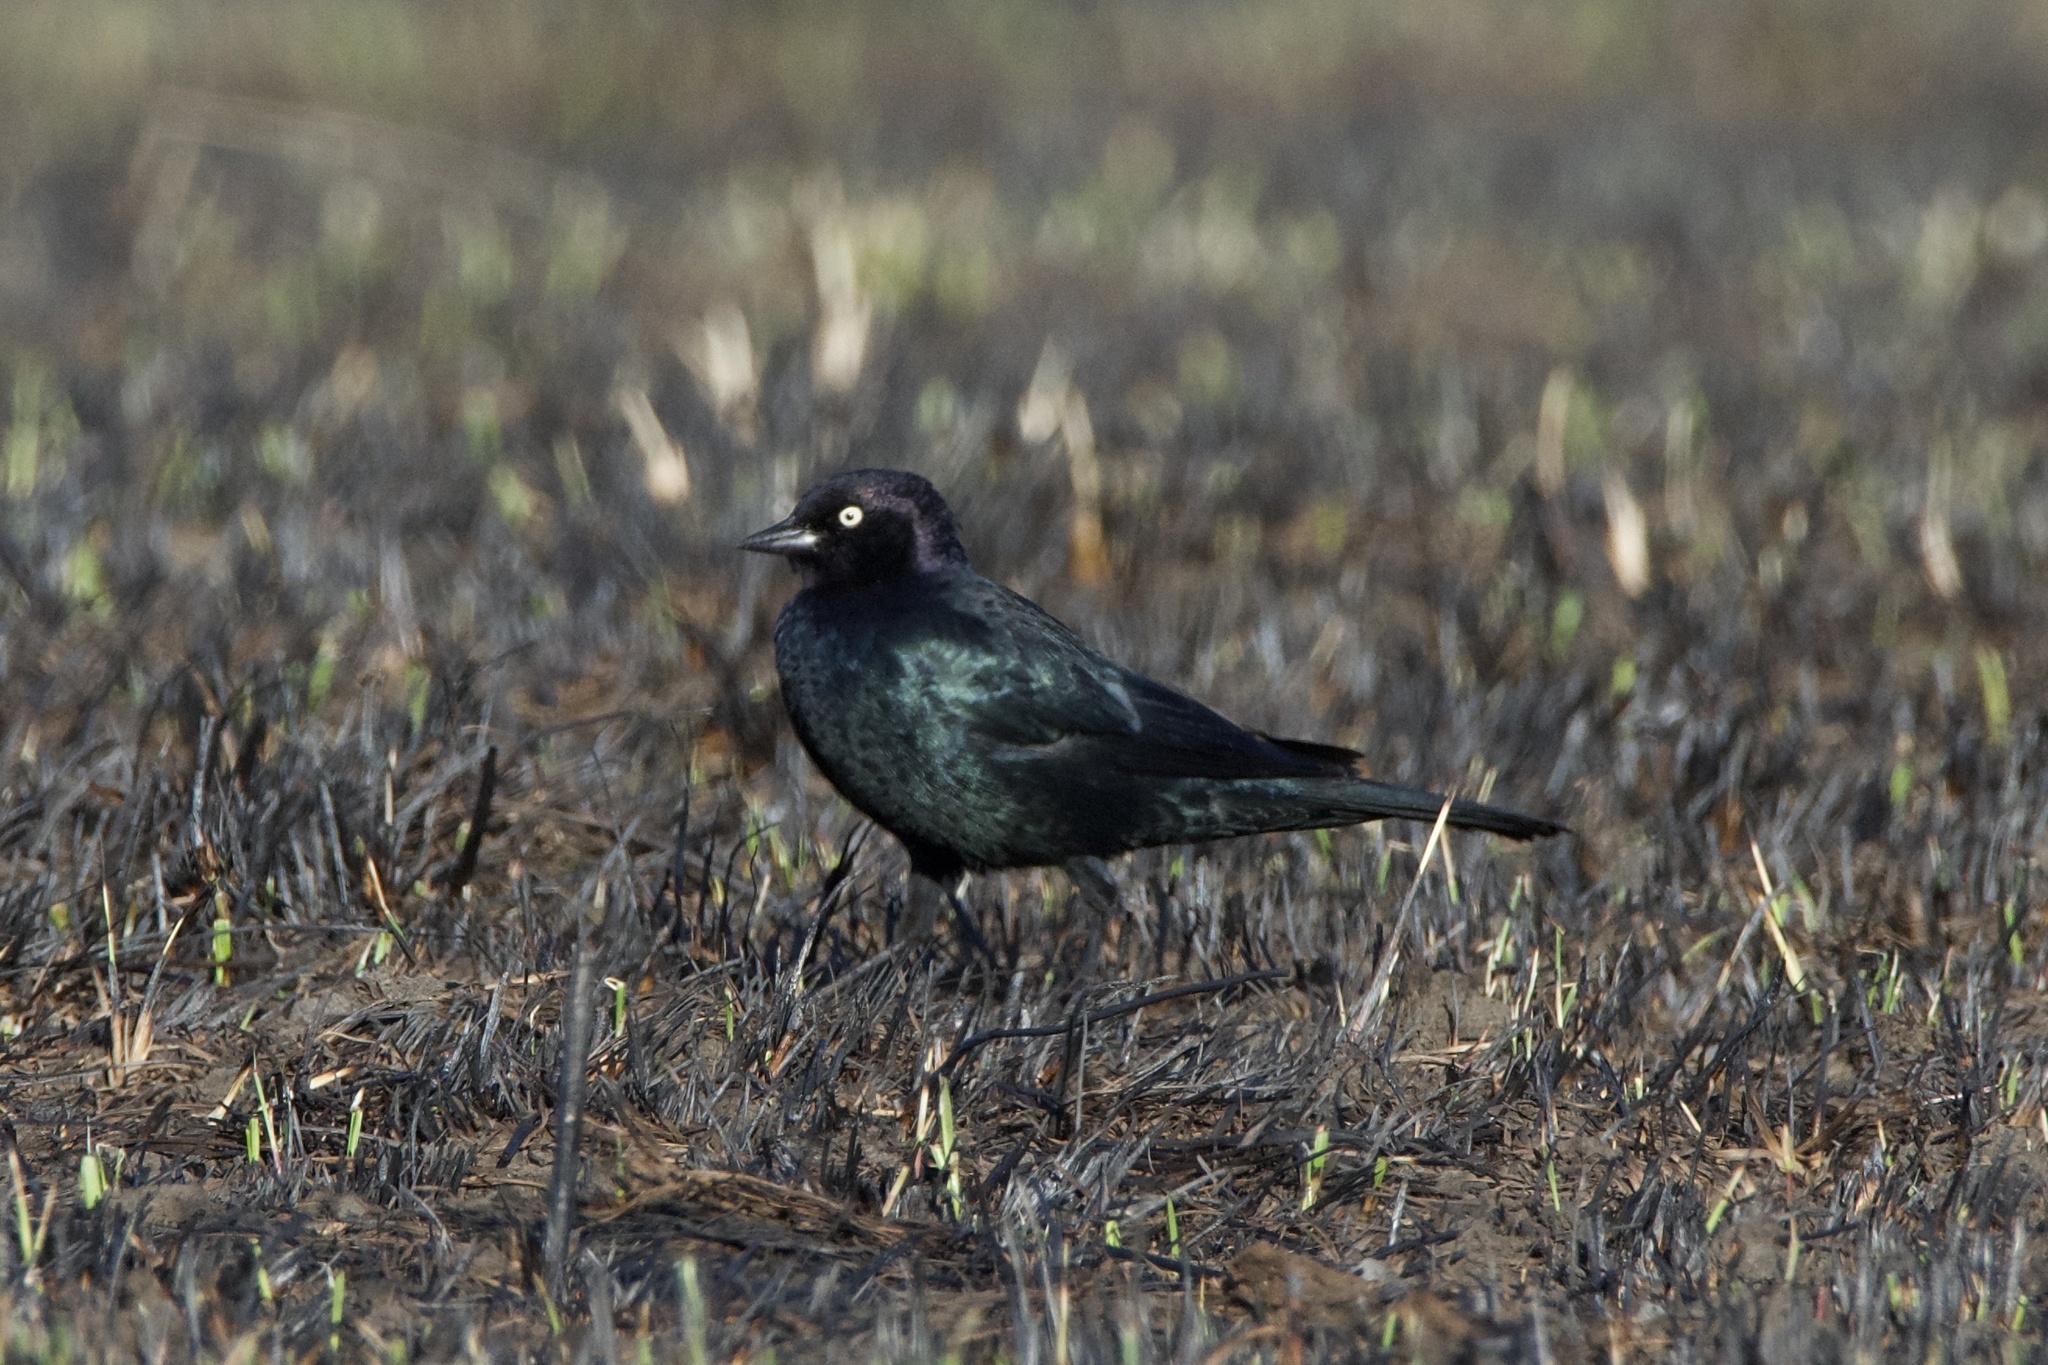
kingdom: Animalia
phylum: Chordata
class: Aves
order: Passeriformes
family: Icteridae
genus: Euphagus
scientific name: Euphagus cyanocephalus
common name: Brewer's blackbird
